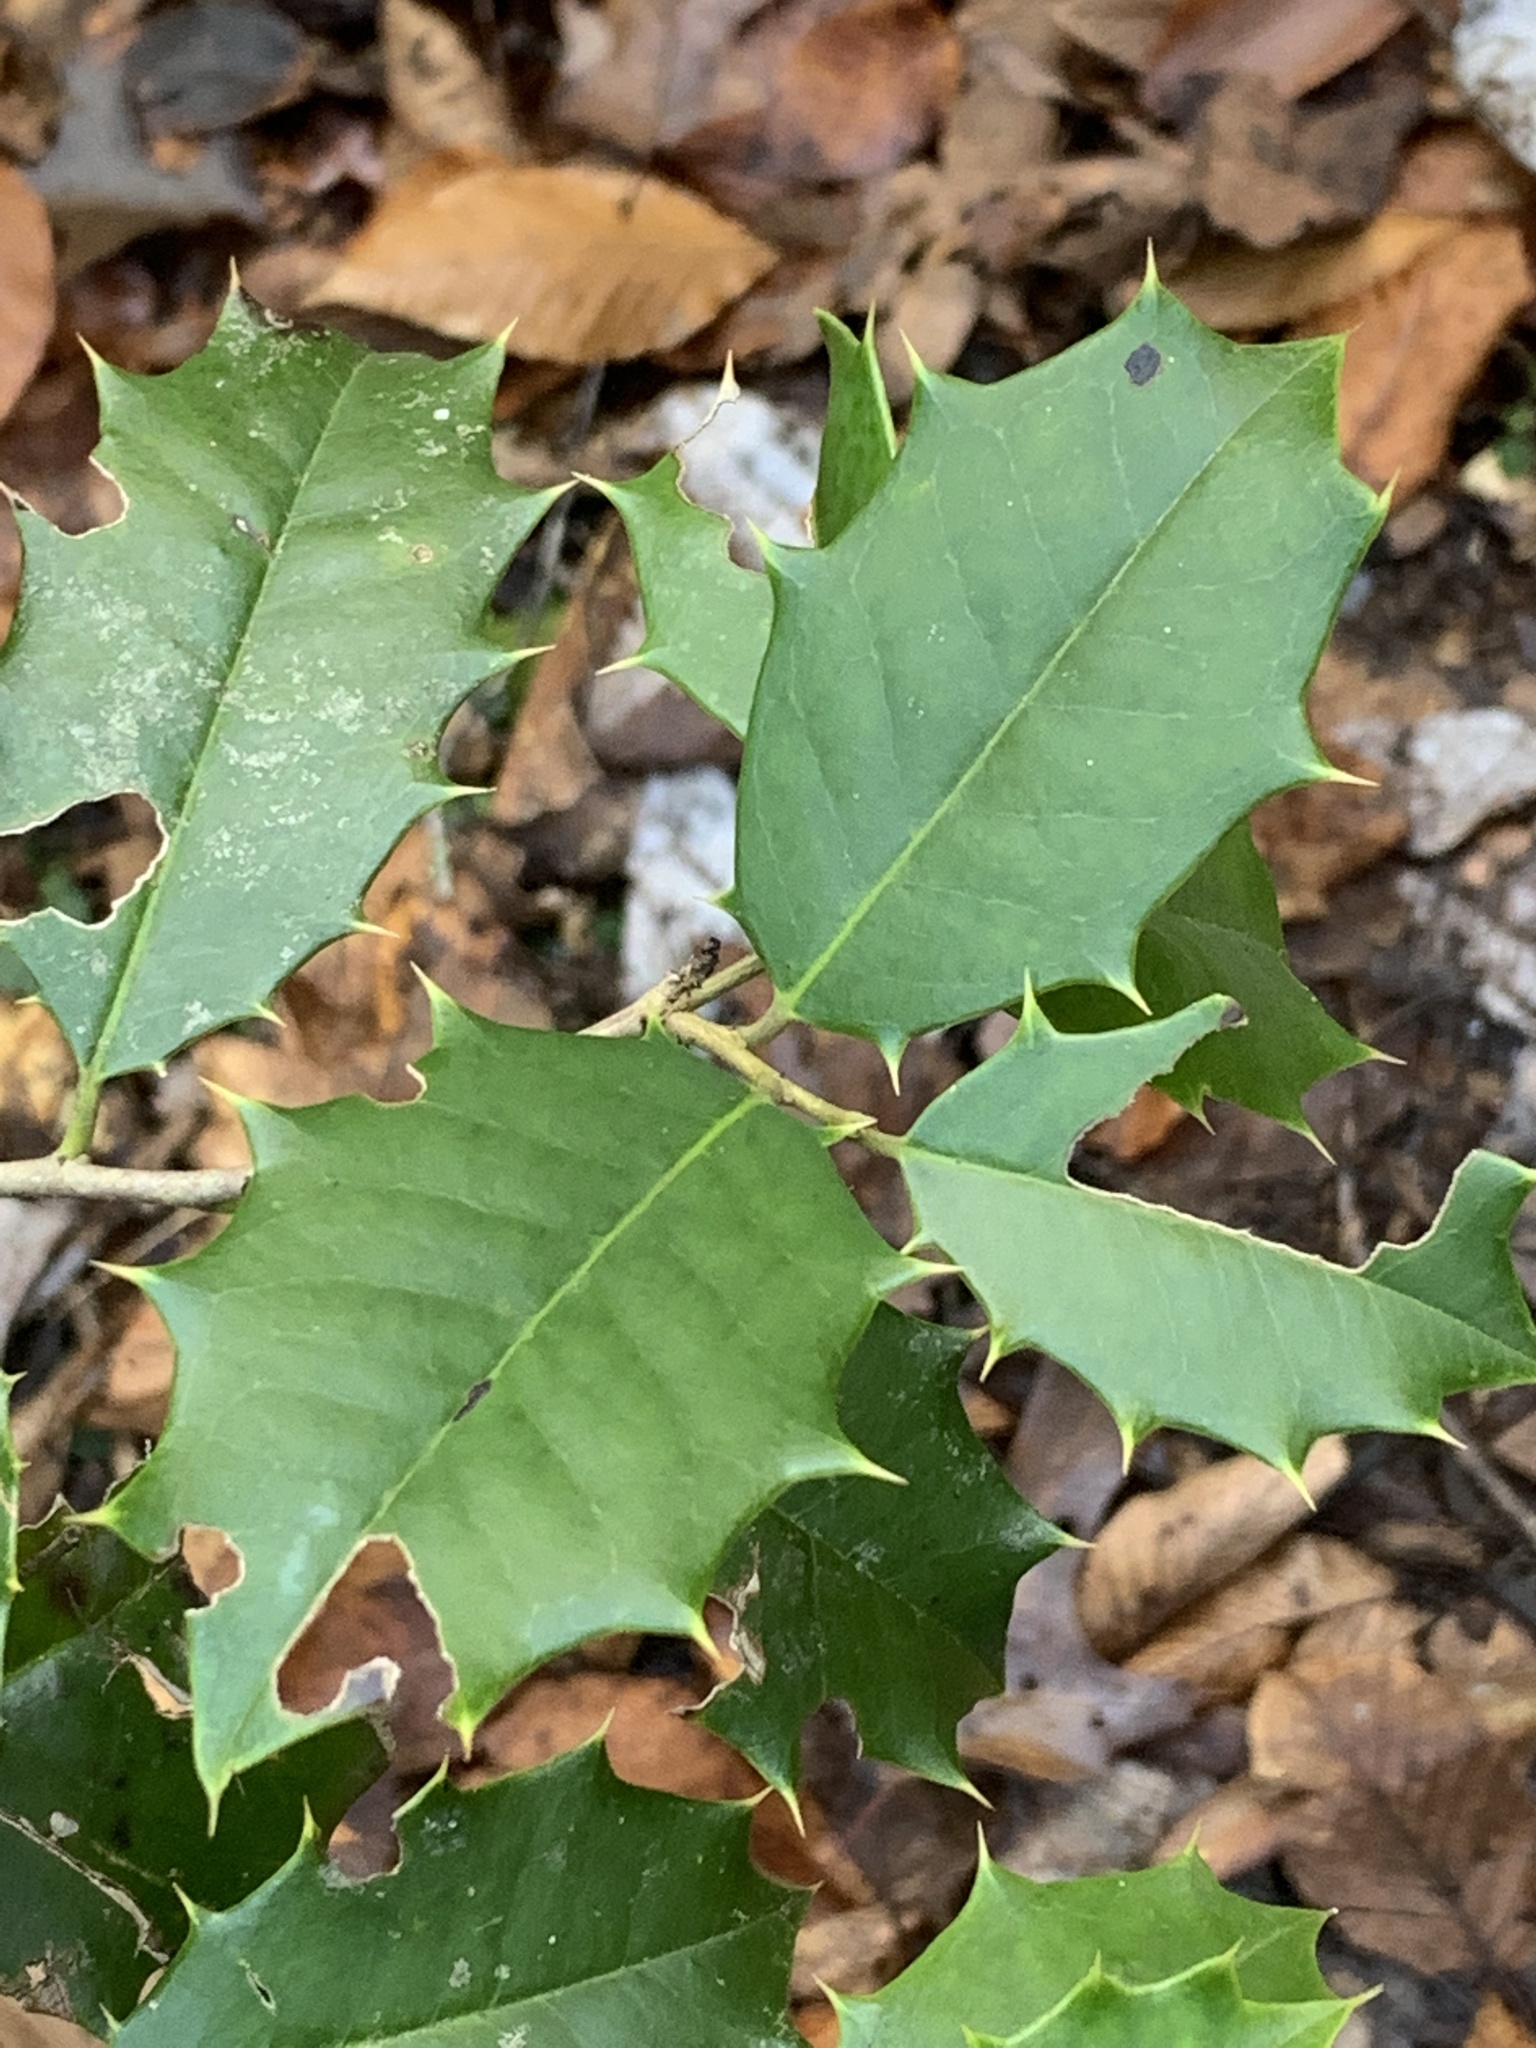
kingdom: Plantae
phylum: Tracheophyta
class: Magnoliopsida
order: Aquifoliales
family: Aquifoliaceae
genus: Ilex
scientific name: Ilex opaca
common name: American holly
